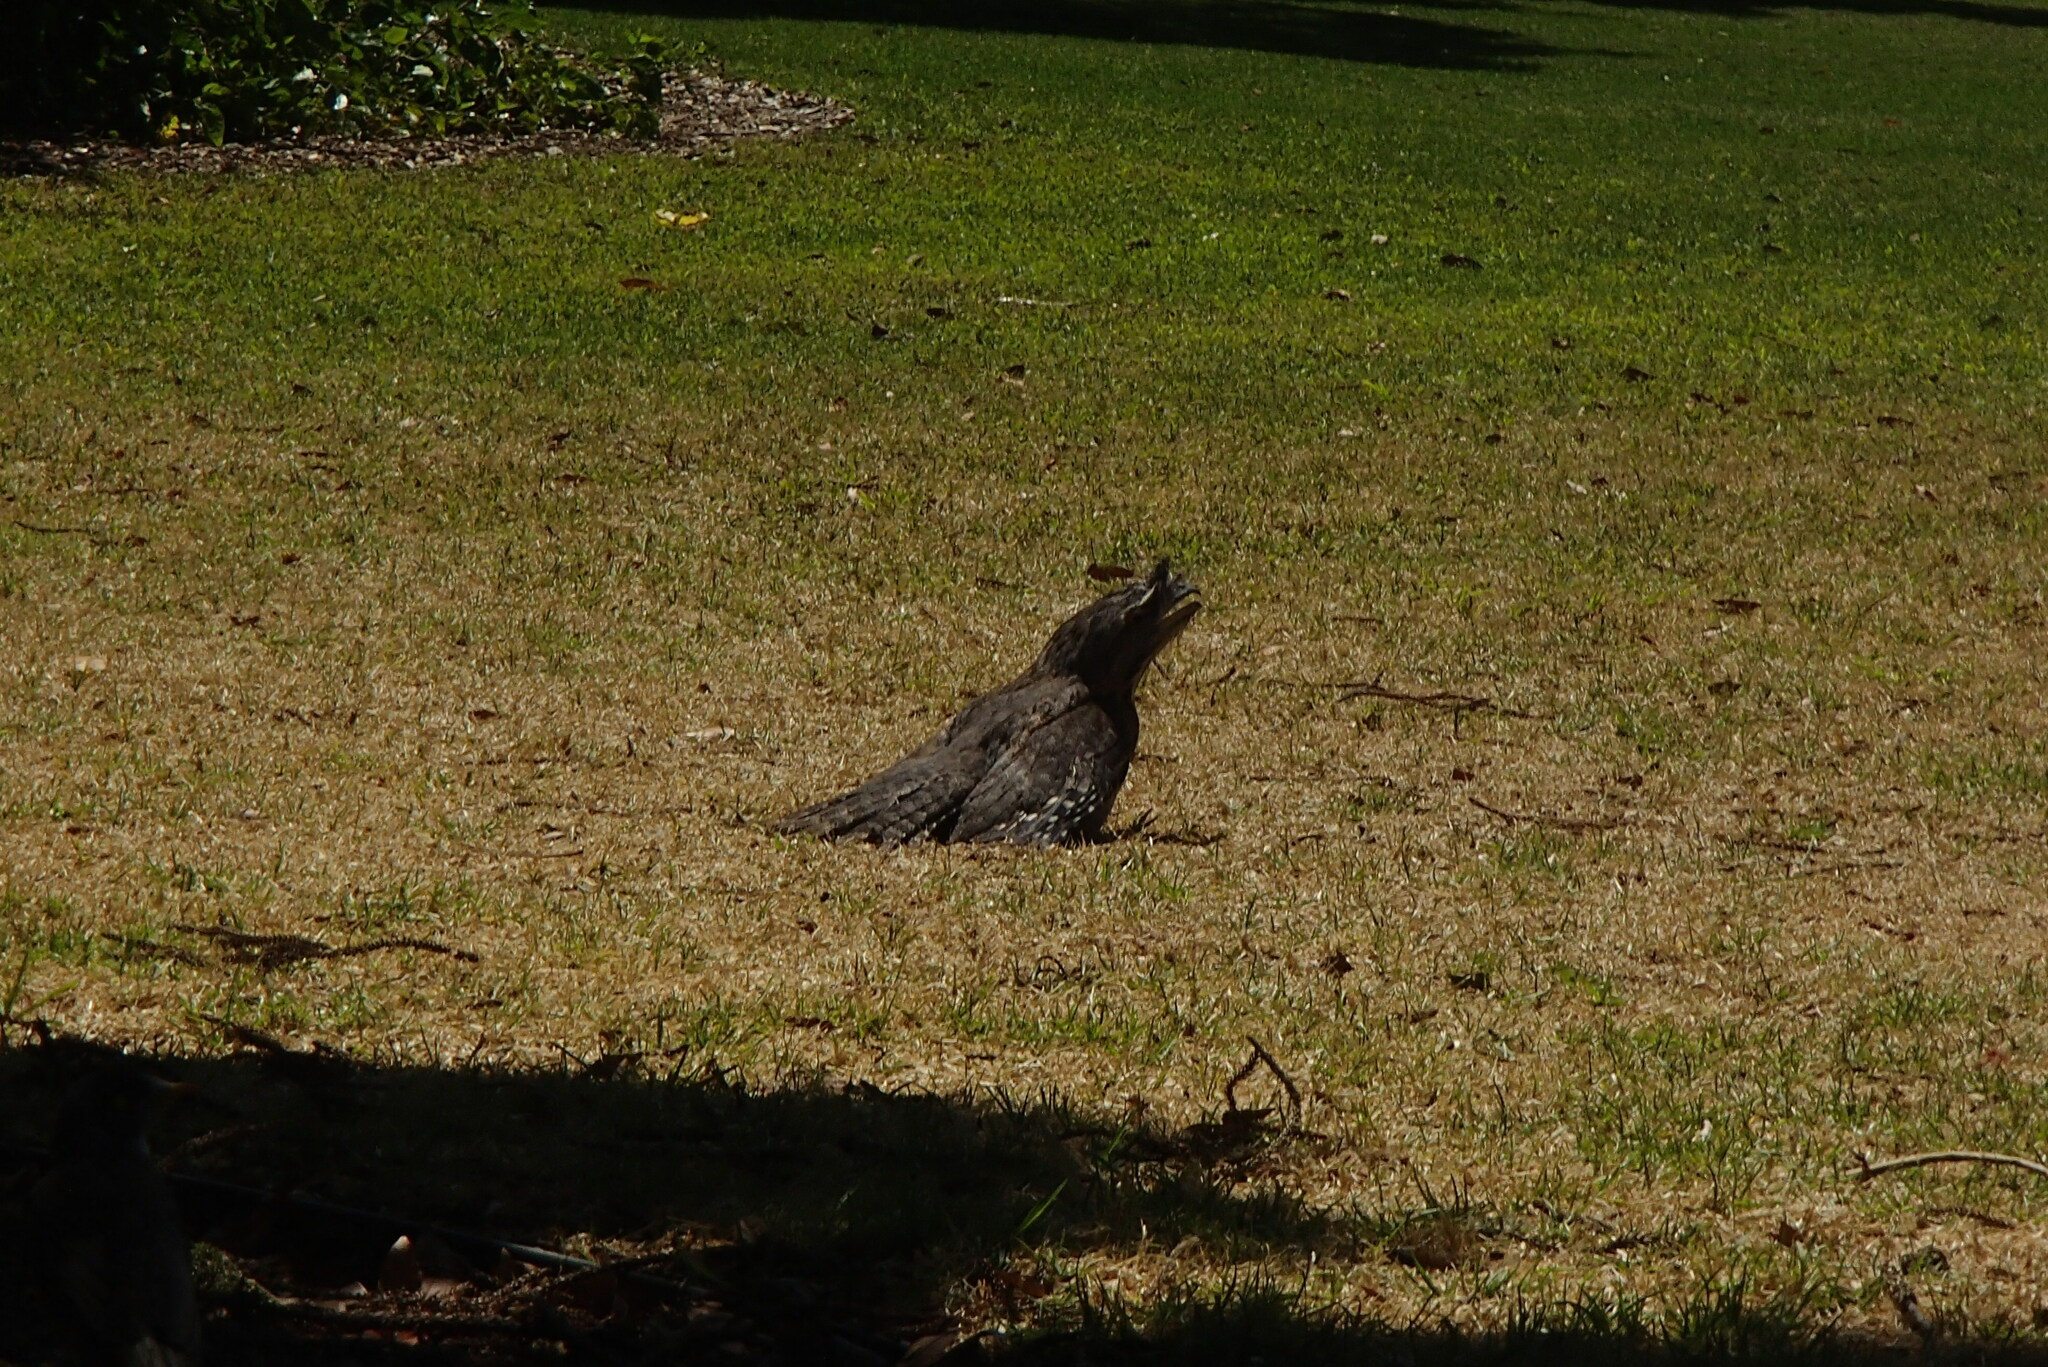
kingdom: Animalia
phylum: Chordata
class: Aves
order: Caprimulgiformes
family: Podargidae
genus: Podargus
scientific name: Podargus strigoides
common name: Tawny frogmouth
